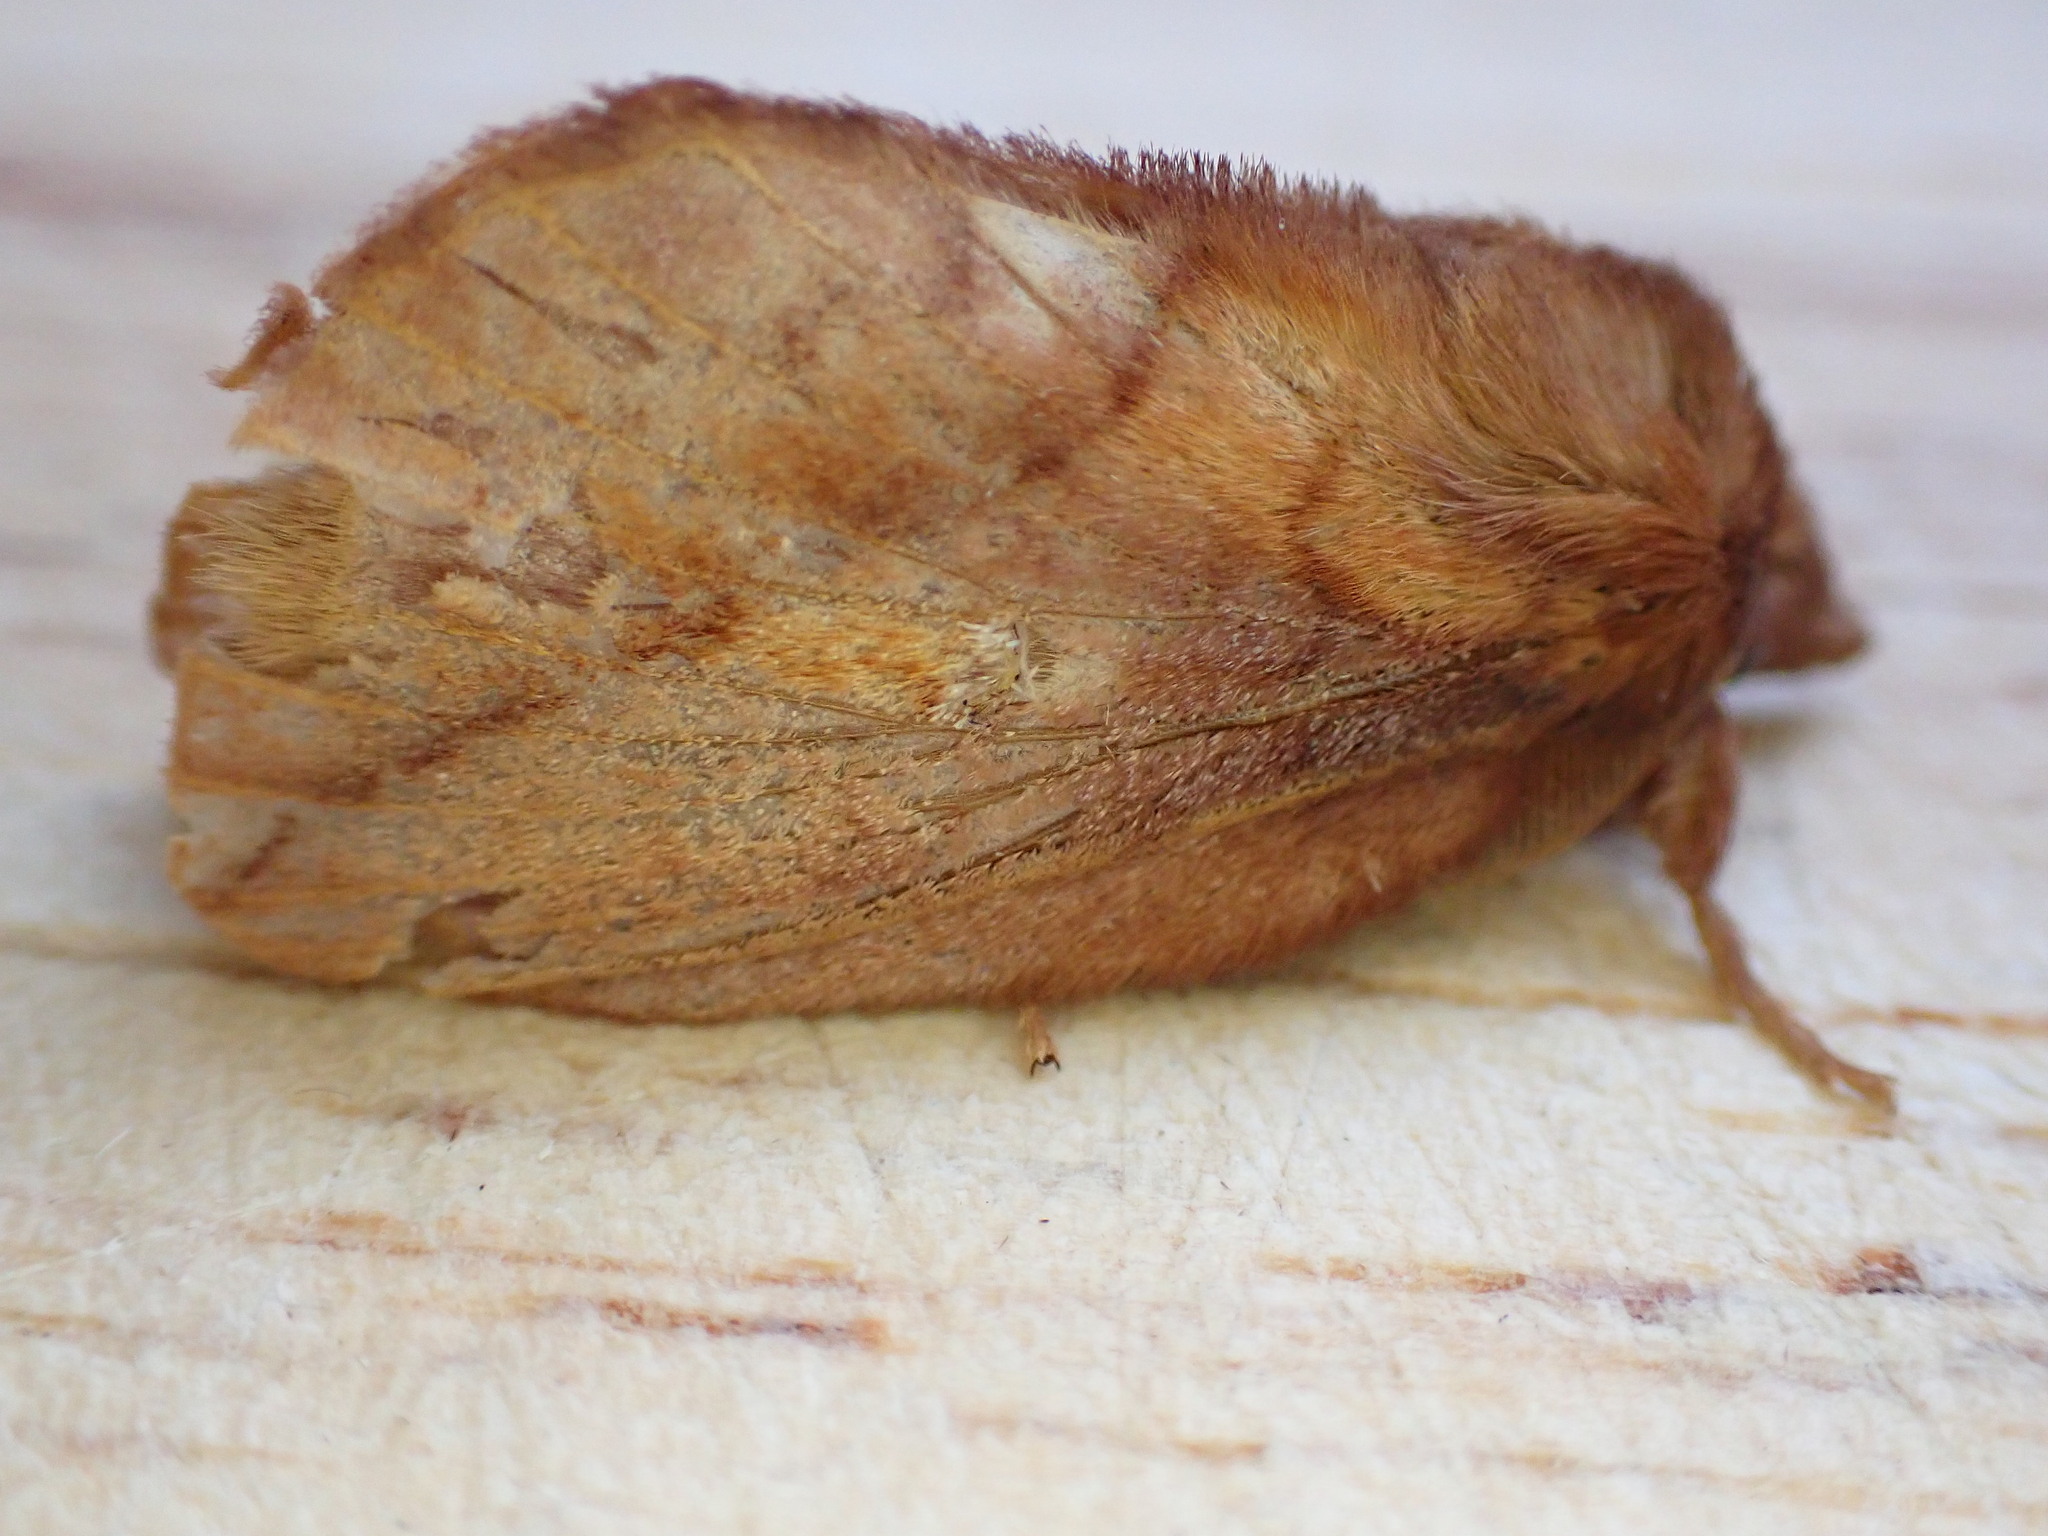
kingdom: Animalia
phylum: Arthropoda
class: Insecta
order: Lepidoptera
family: Lasiocampidae
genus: Euthrix
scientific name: Euthrix potatoria
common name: Drinker
